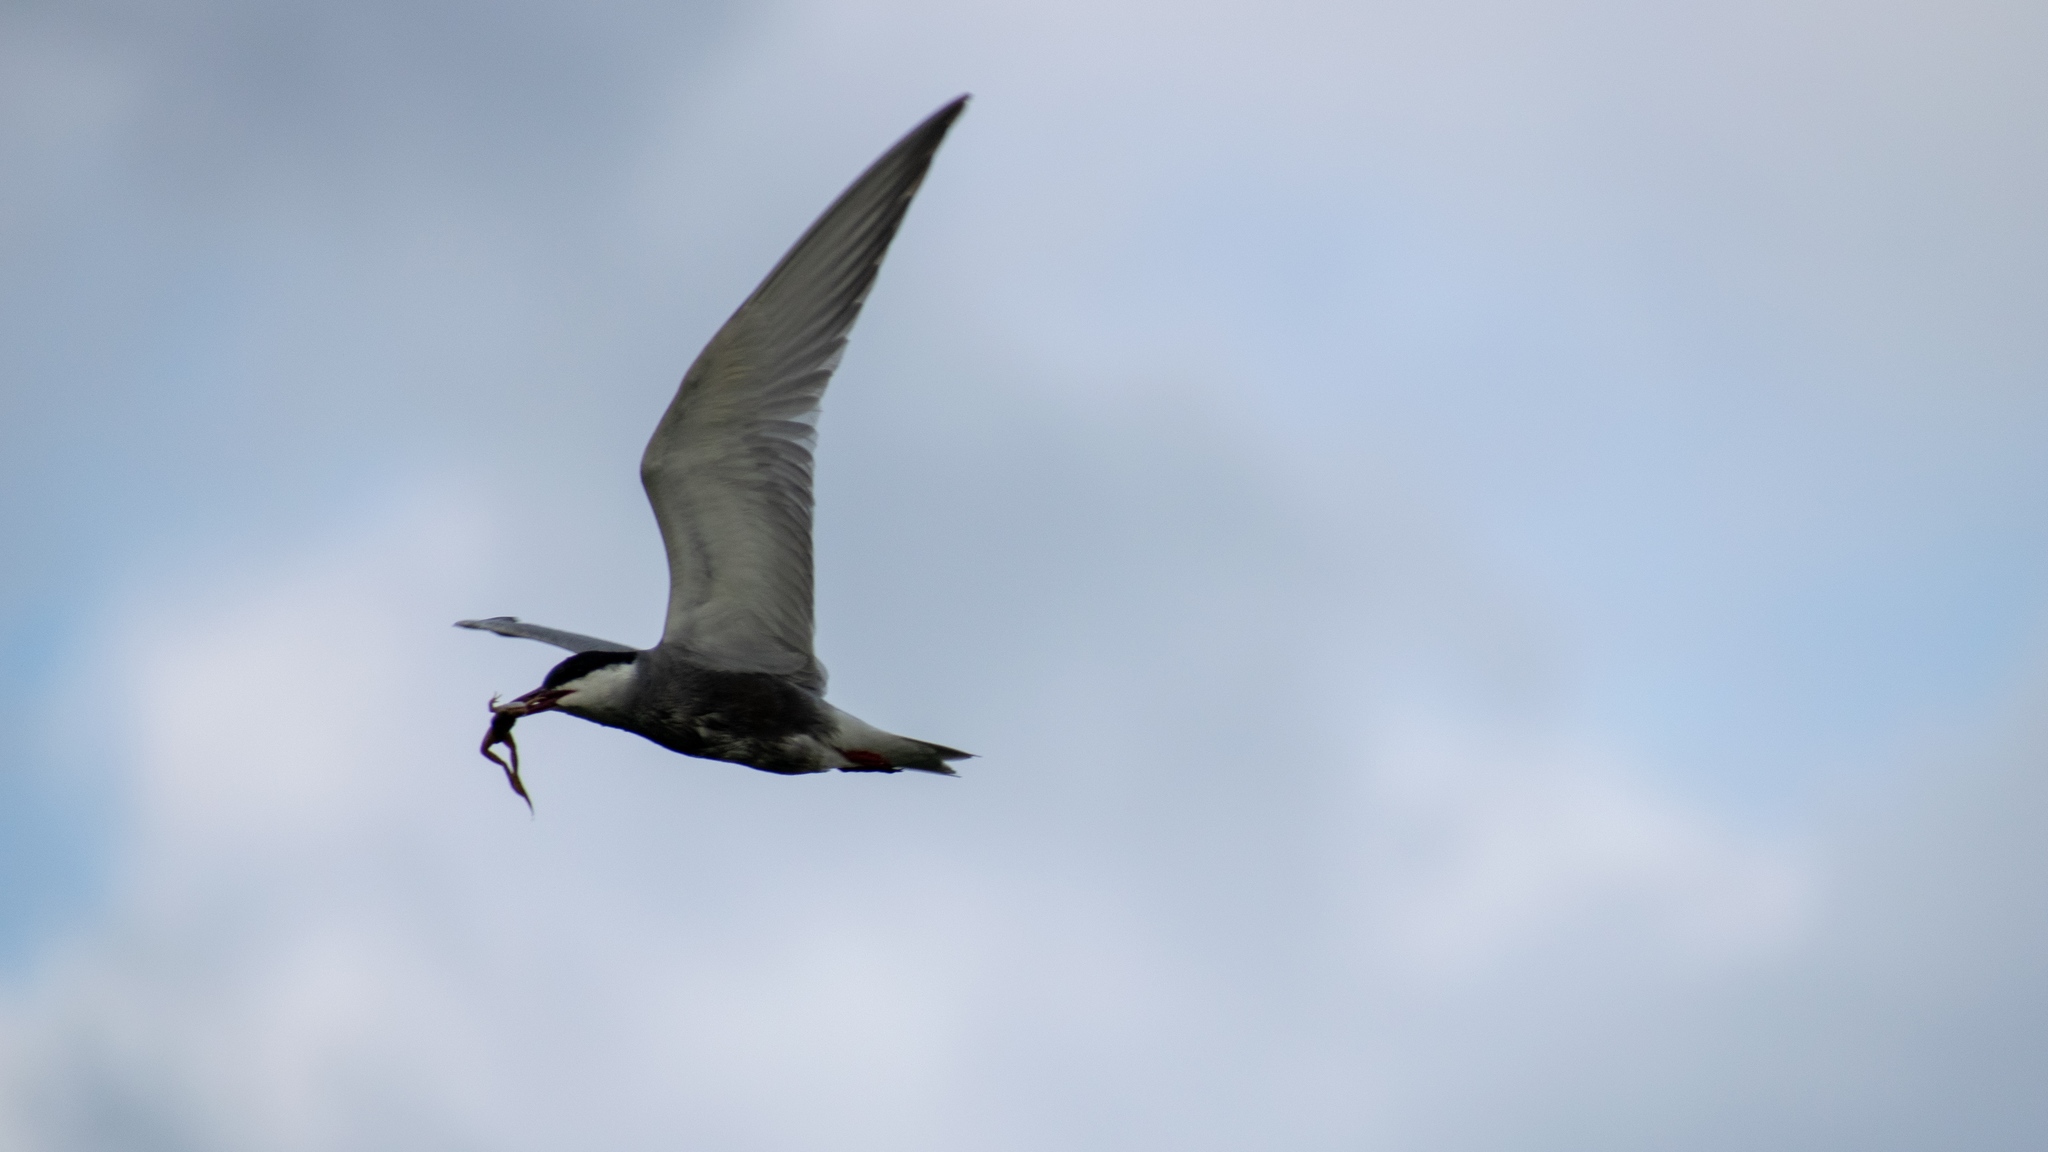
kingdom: Animalia
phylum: Chordata
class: Aves
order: Charadriiformes
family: Laridae
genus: Chlidonias
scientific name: Chlidonias hybrida
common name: Whiskered tern
